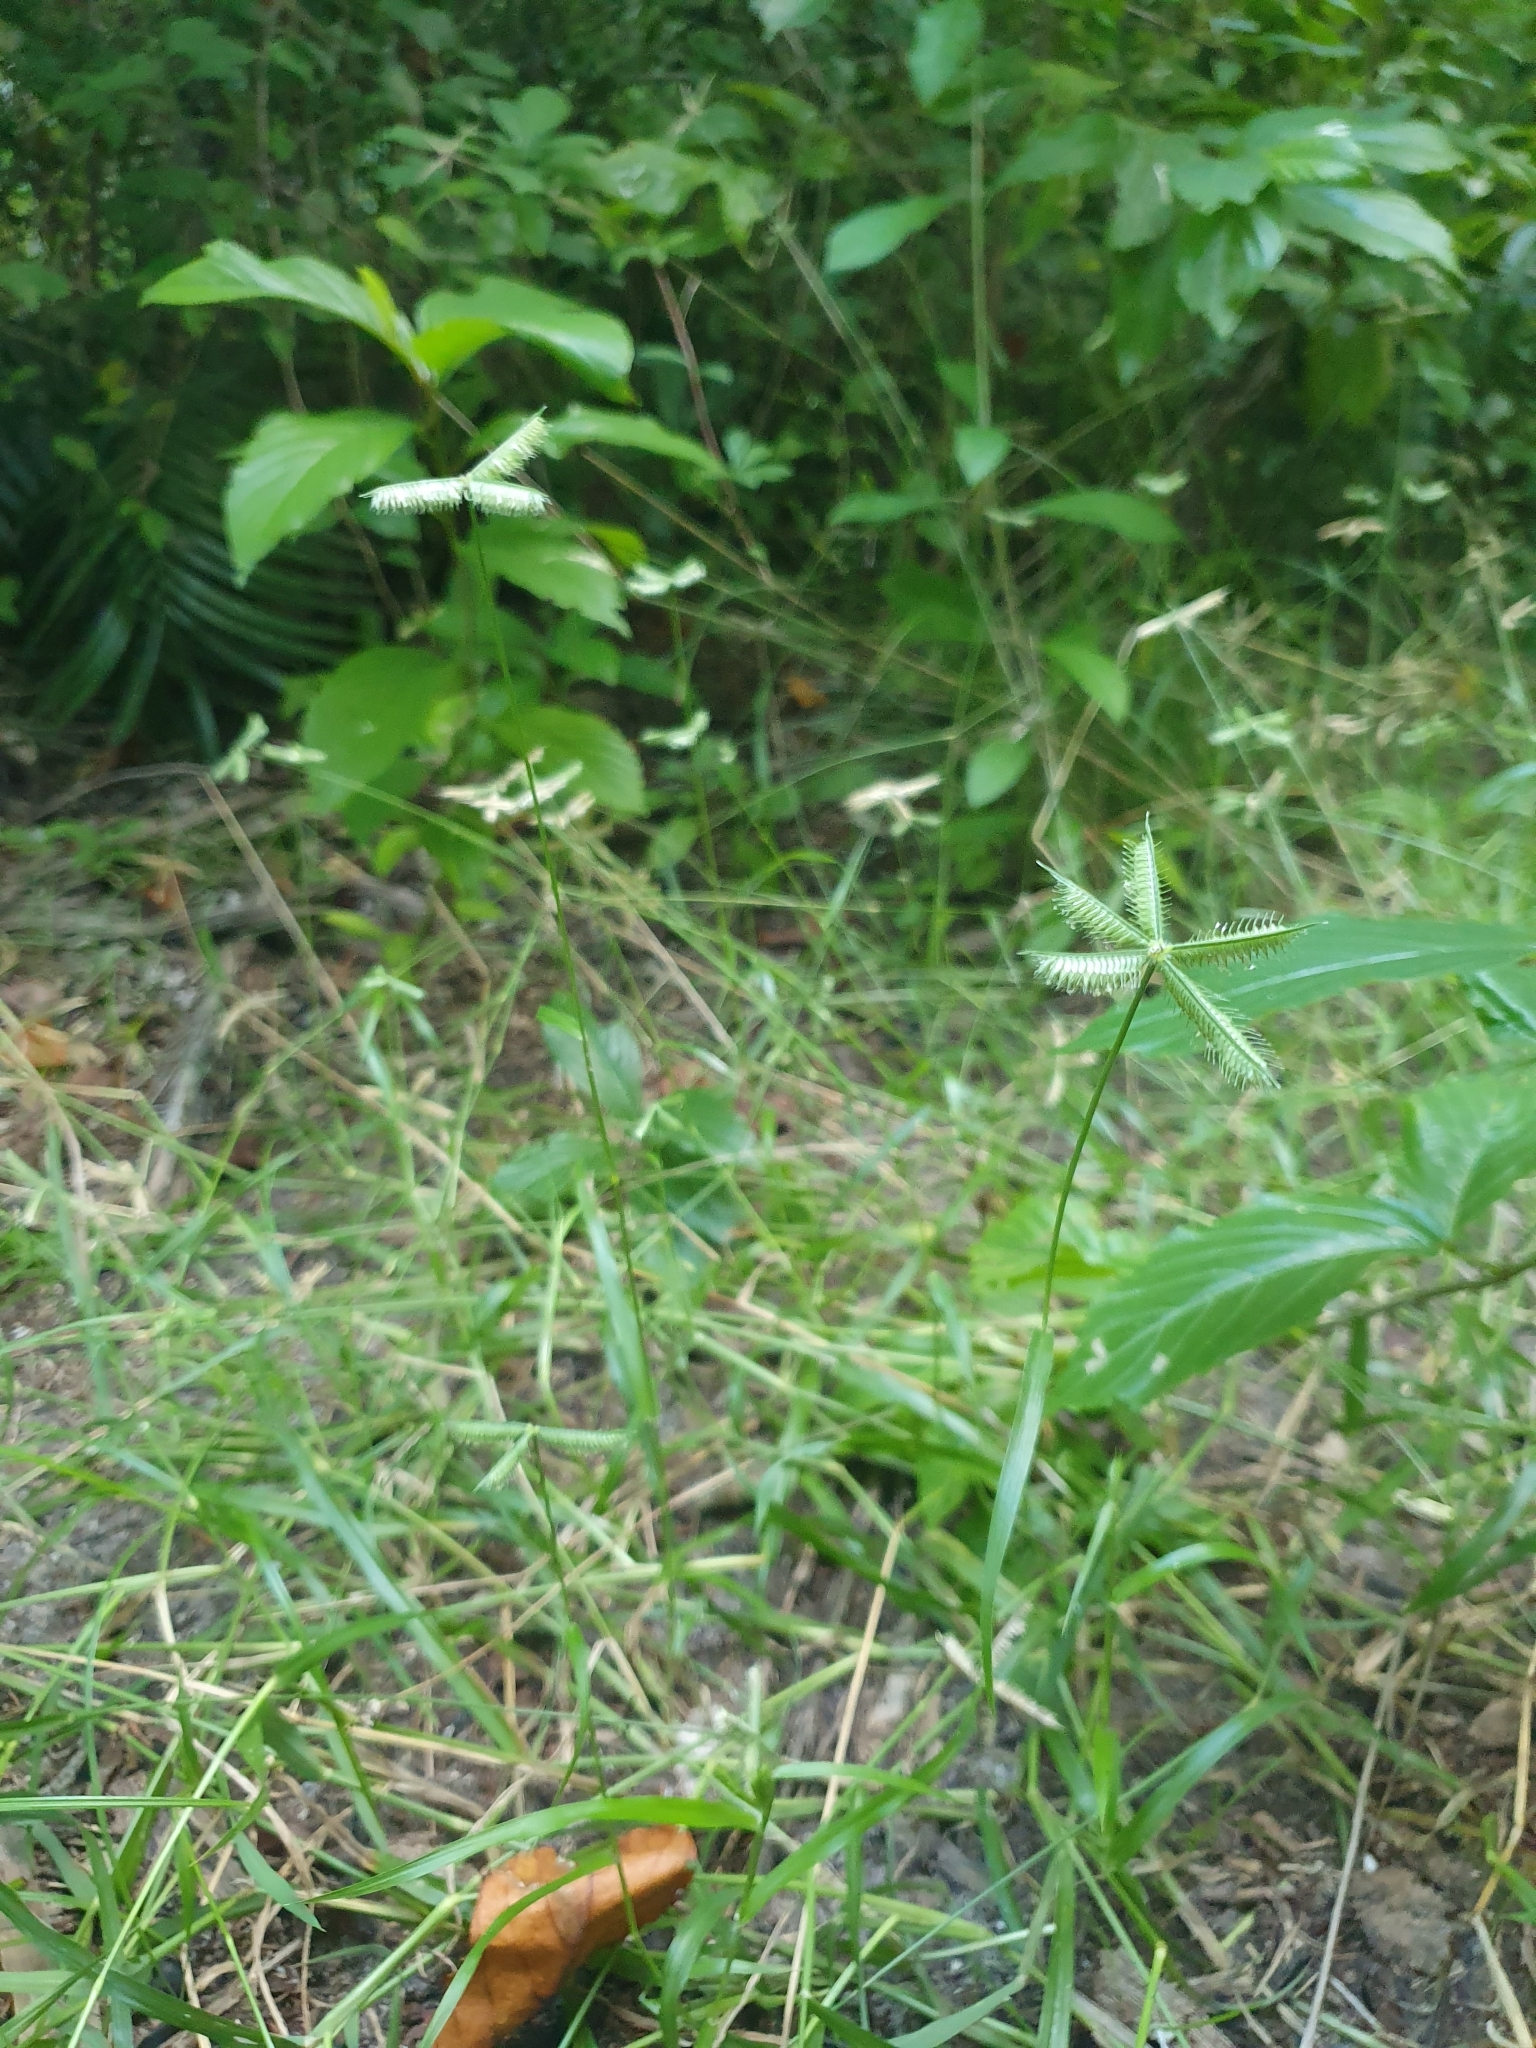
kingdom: Plantae
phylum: Tracheophyta
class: Liliopsida
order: Poales
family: Poaceae
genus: Dactyloctenium
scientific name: Dactyloctenium aegyptium
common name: Egyptian grass
